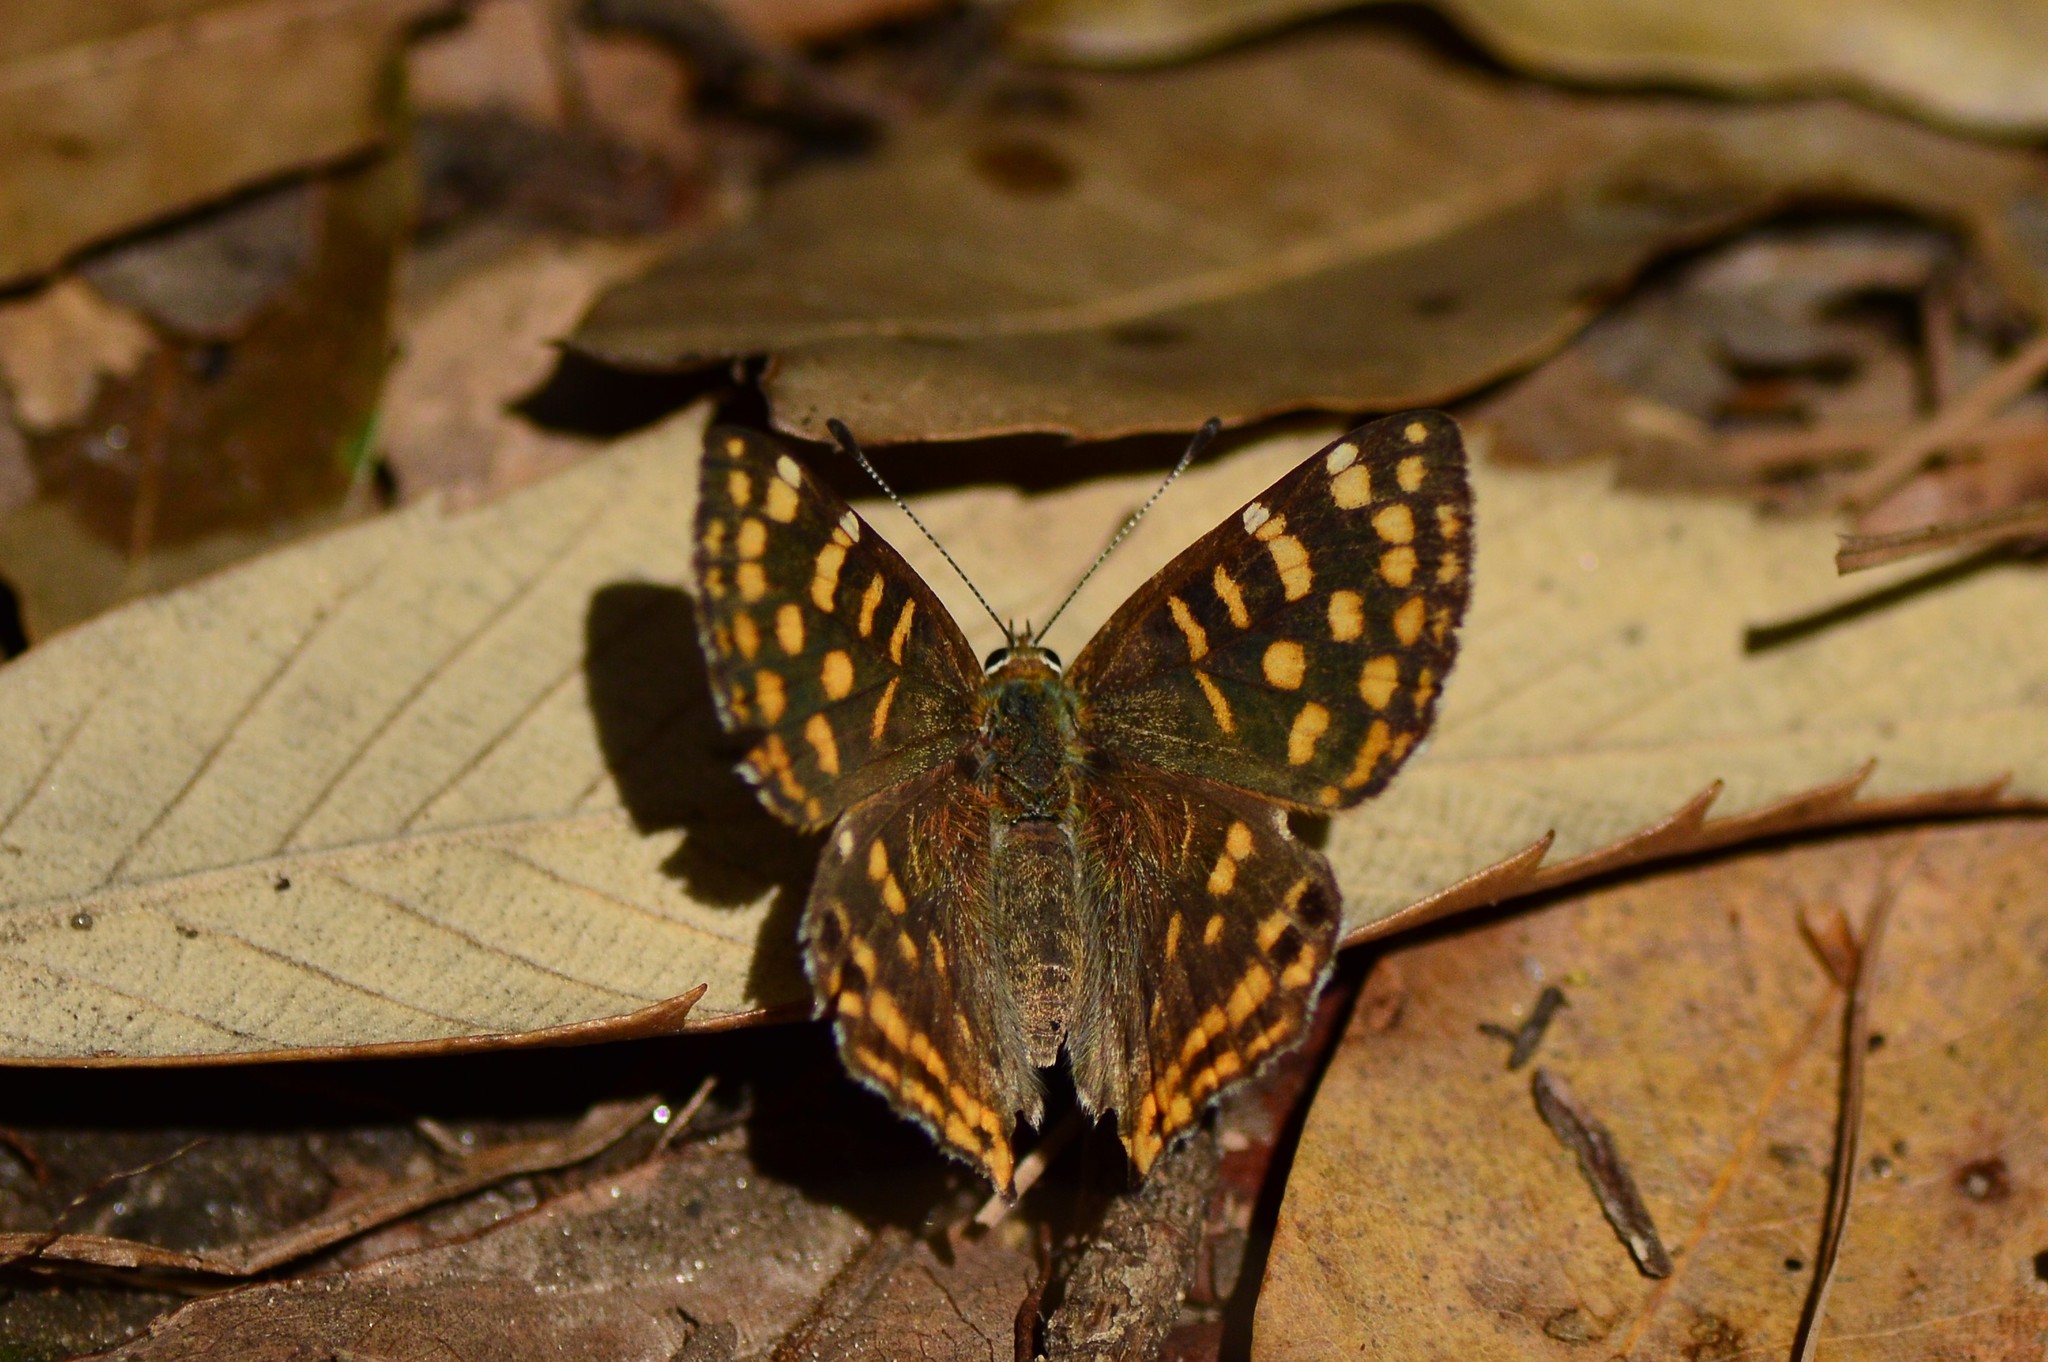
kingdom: Animalia
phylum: Arthropoda
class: Insecta
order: Lepidoptera
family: Lycaenidae
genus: Dodona
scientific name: Dodona durga
